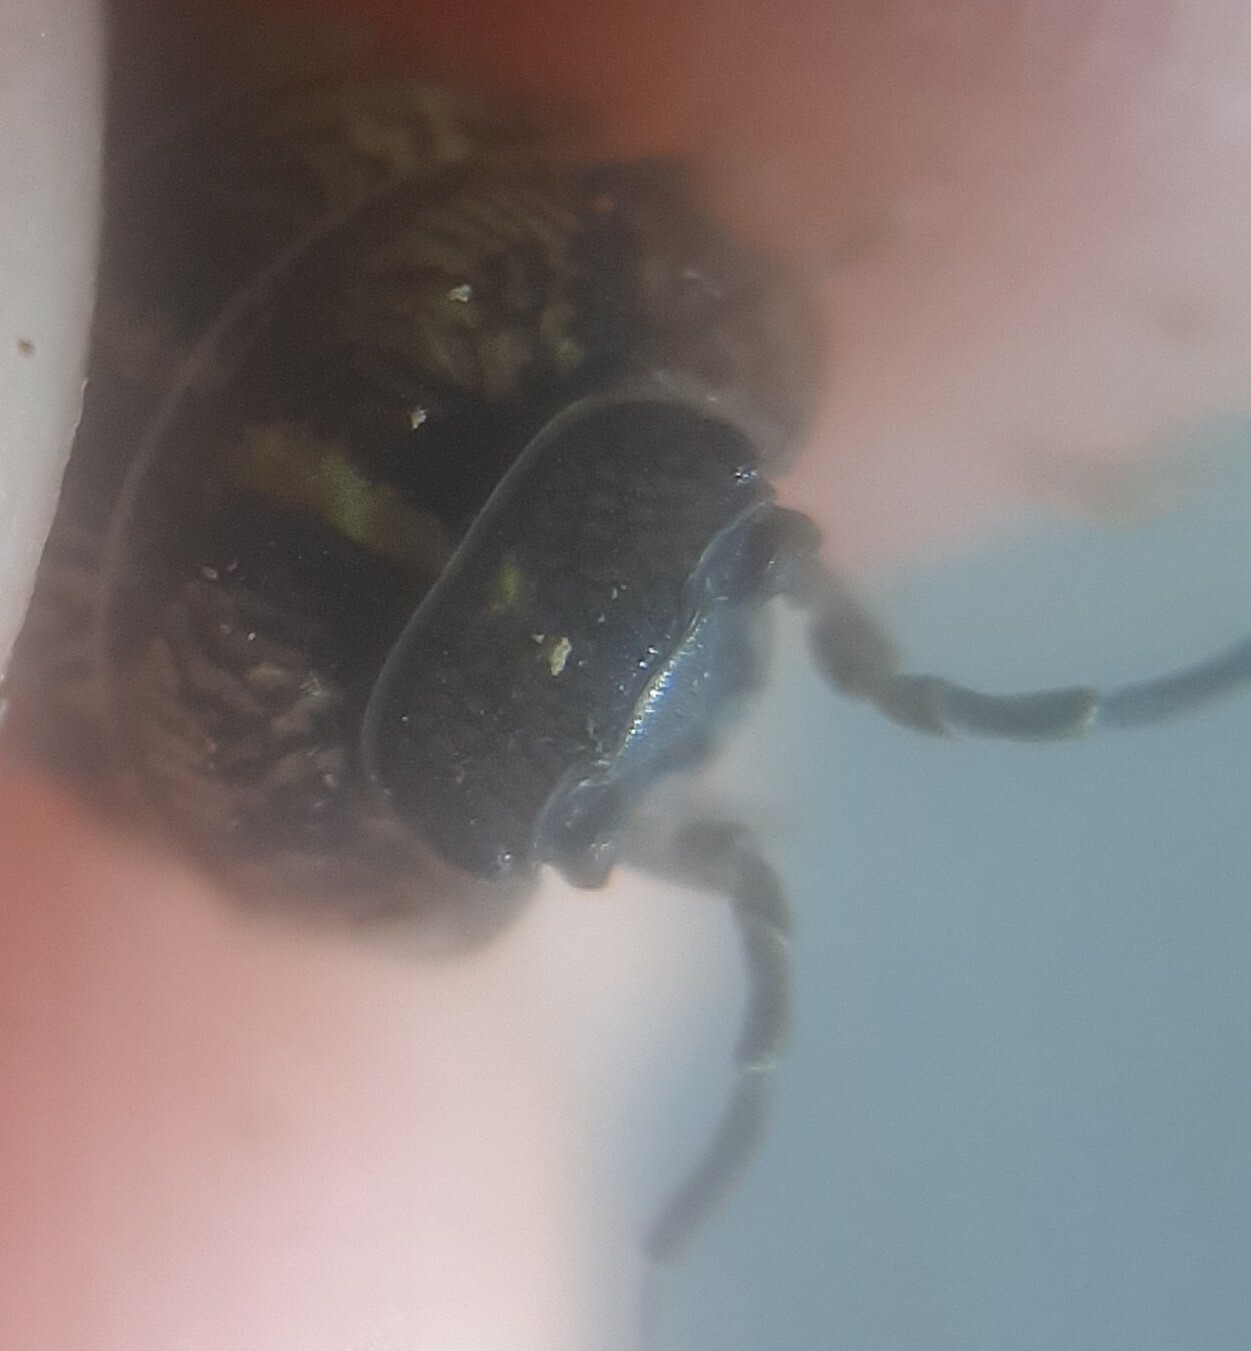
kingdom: Animalia
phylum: Arthropoda
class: Malacostraca
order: Isopoda
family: Armadillidiidae
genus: Armadillidium
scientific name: Armadillidium vulgare
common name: Common pill woodlouse
